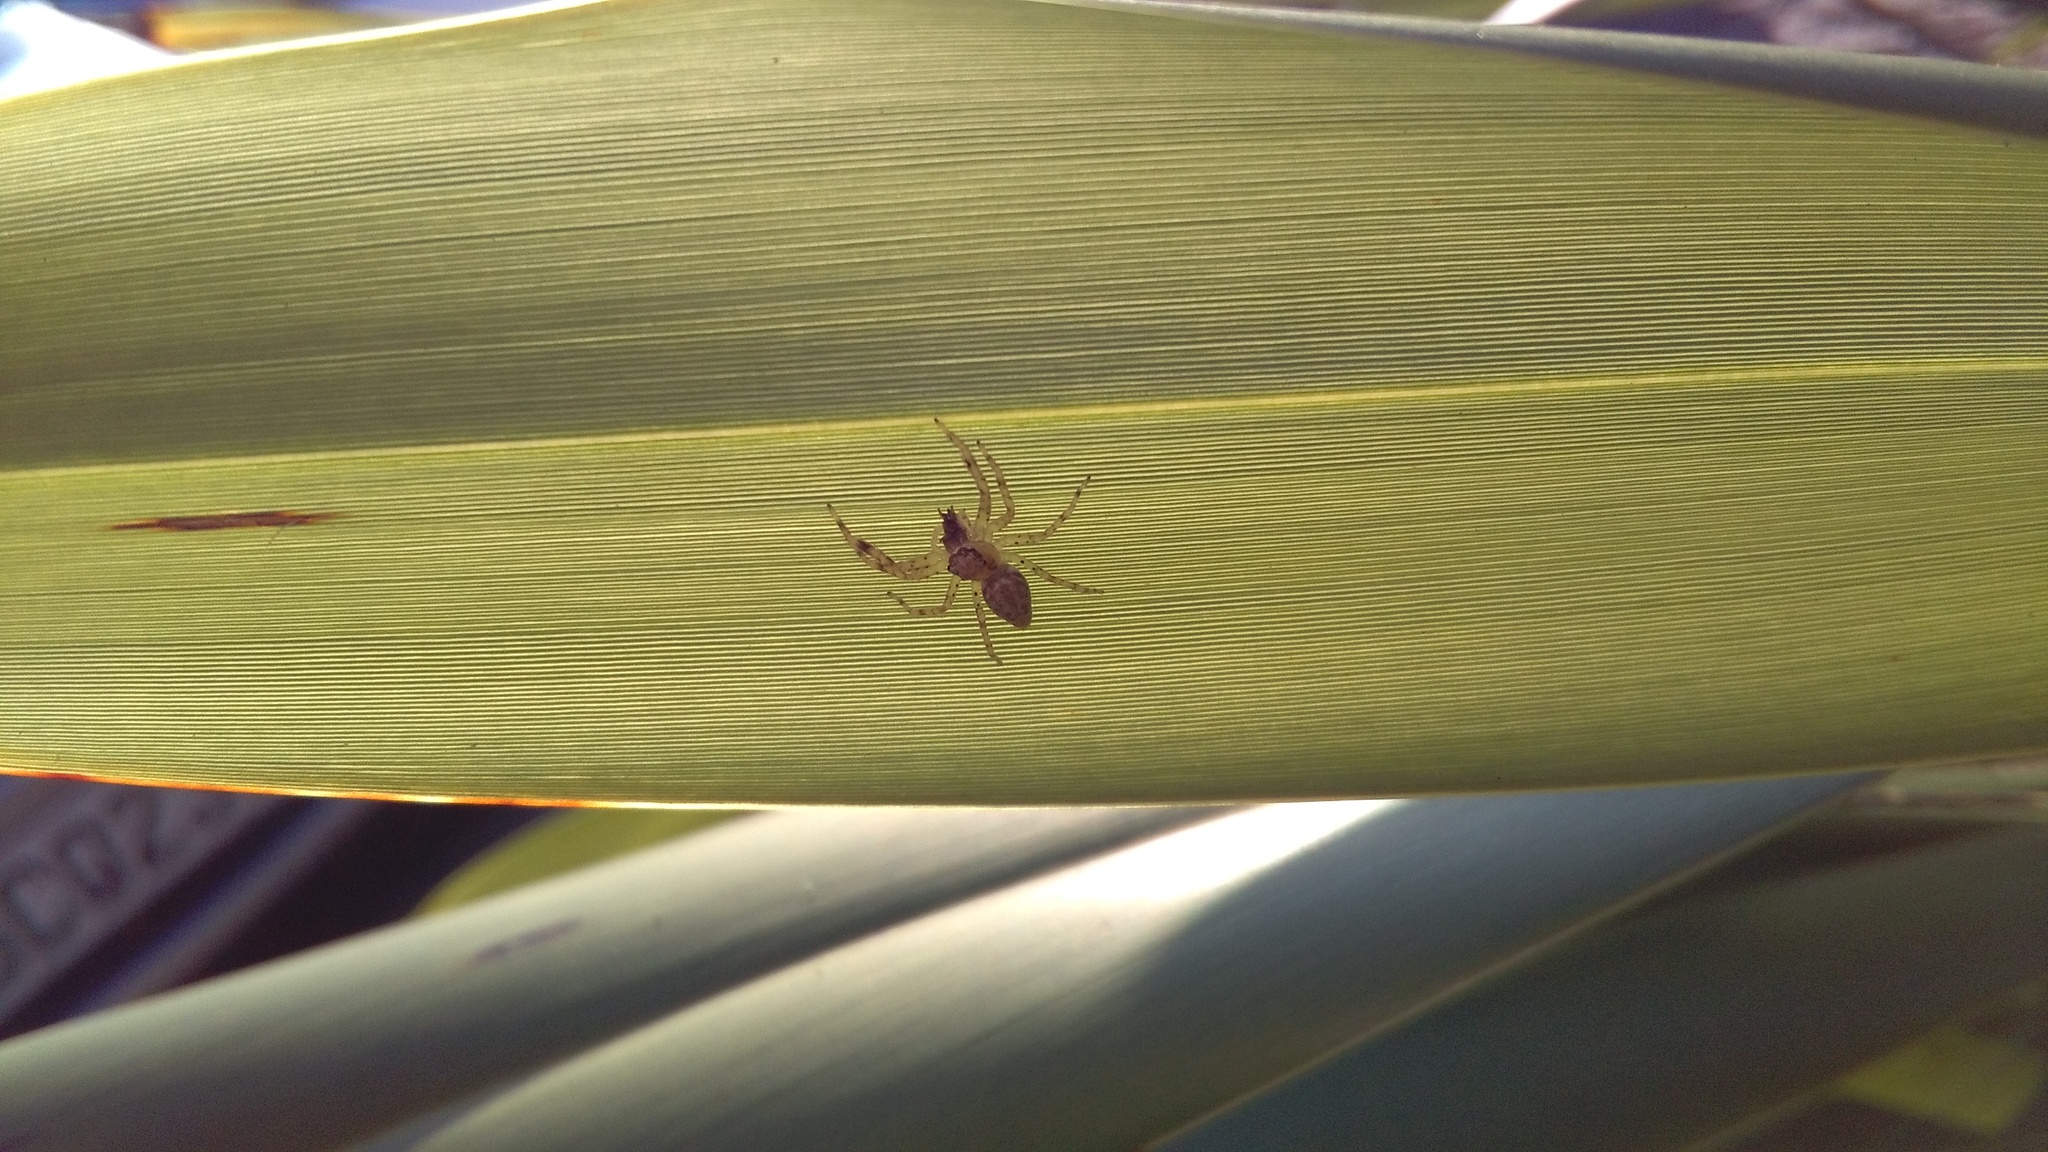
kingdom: Animalia
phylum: Arthropoda
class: Arachnida
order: Araneae
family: Salticidae
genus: Helpis
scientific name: Helpis minitabunda
